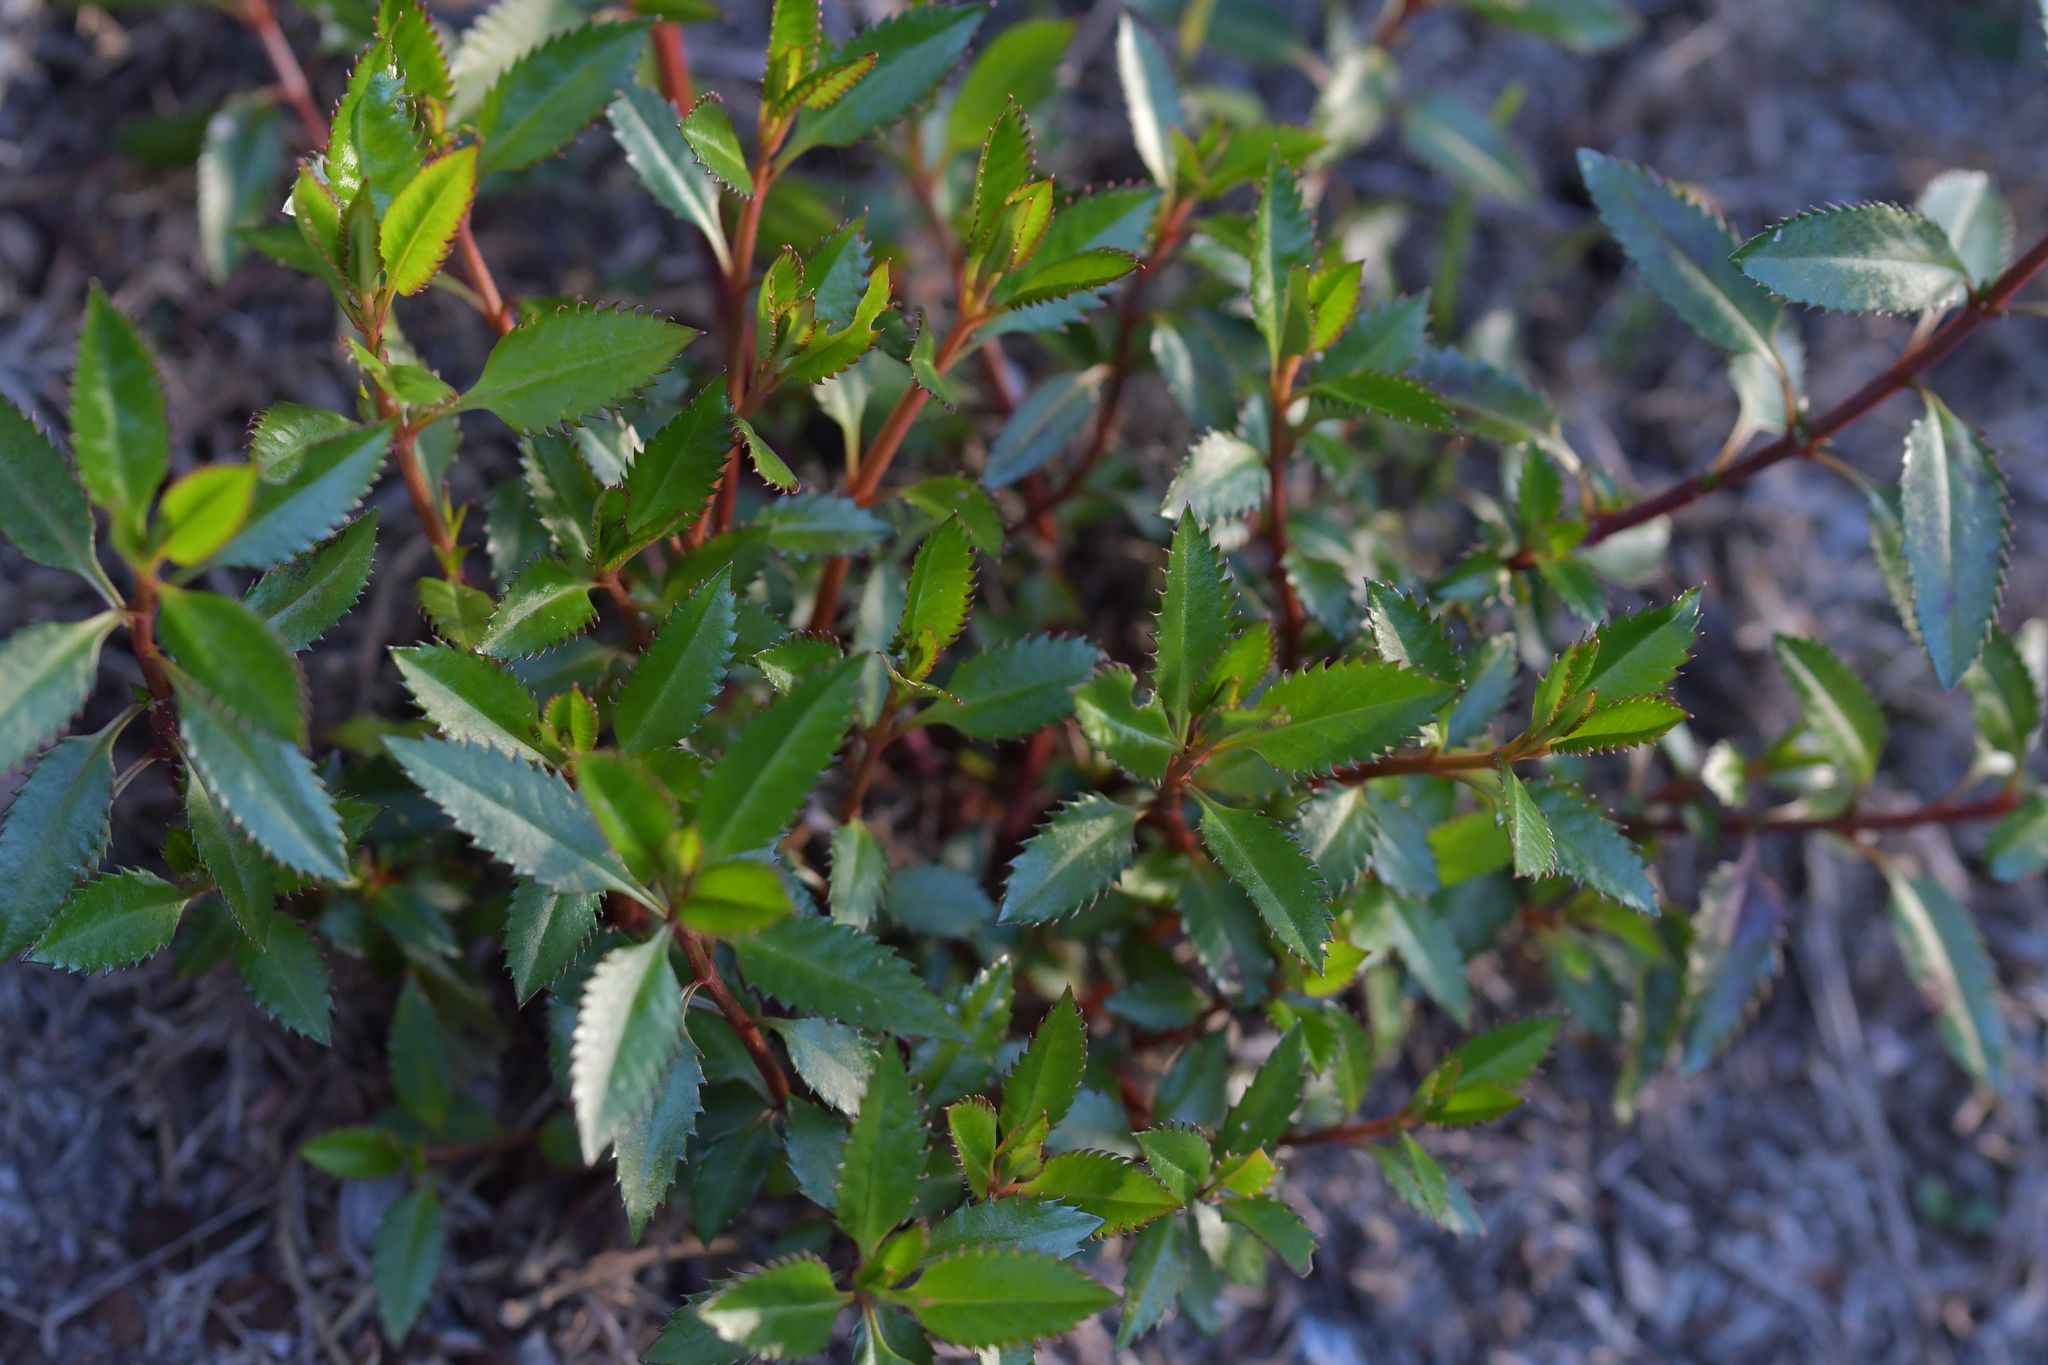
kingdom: Plantae
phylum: Tracheophyta
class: Magnoliopsida
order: Saxifragales
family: Haloragaceae
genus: Haloragis
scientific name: Haloragis erecta
